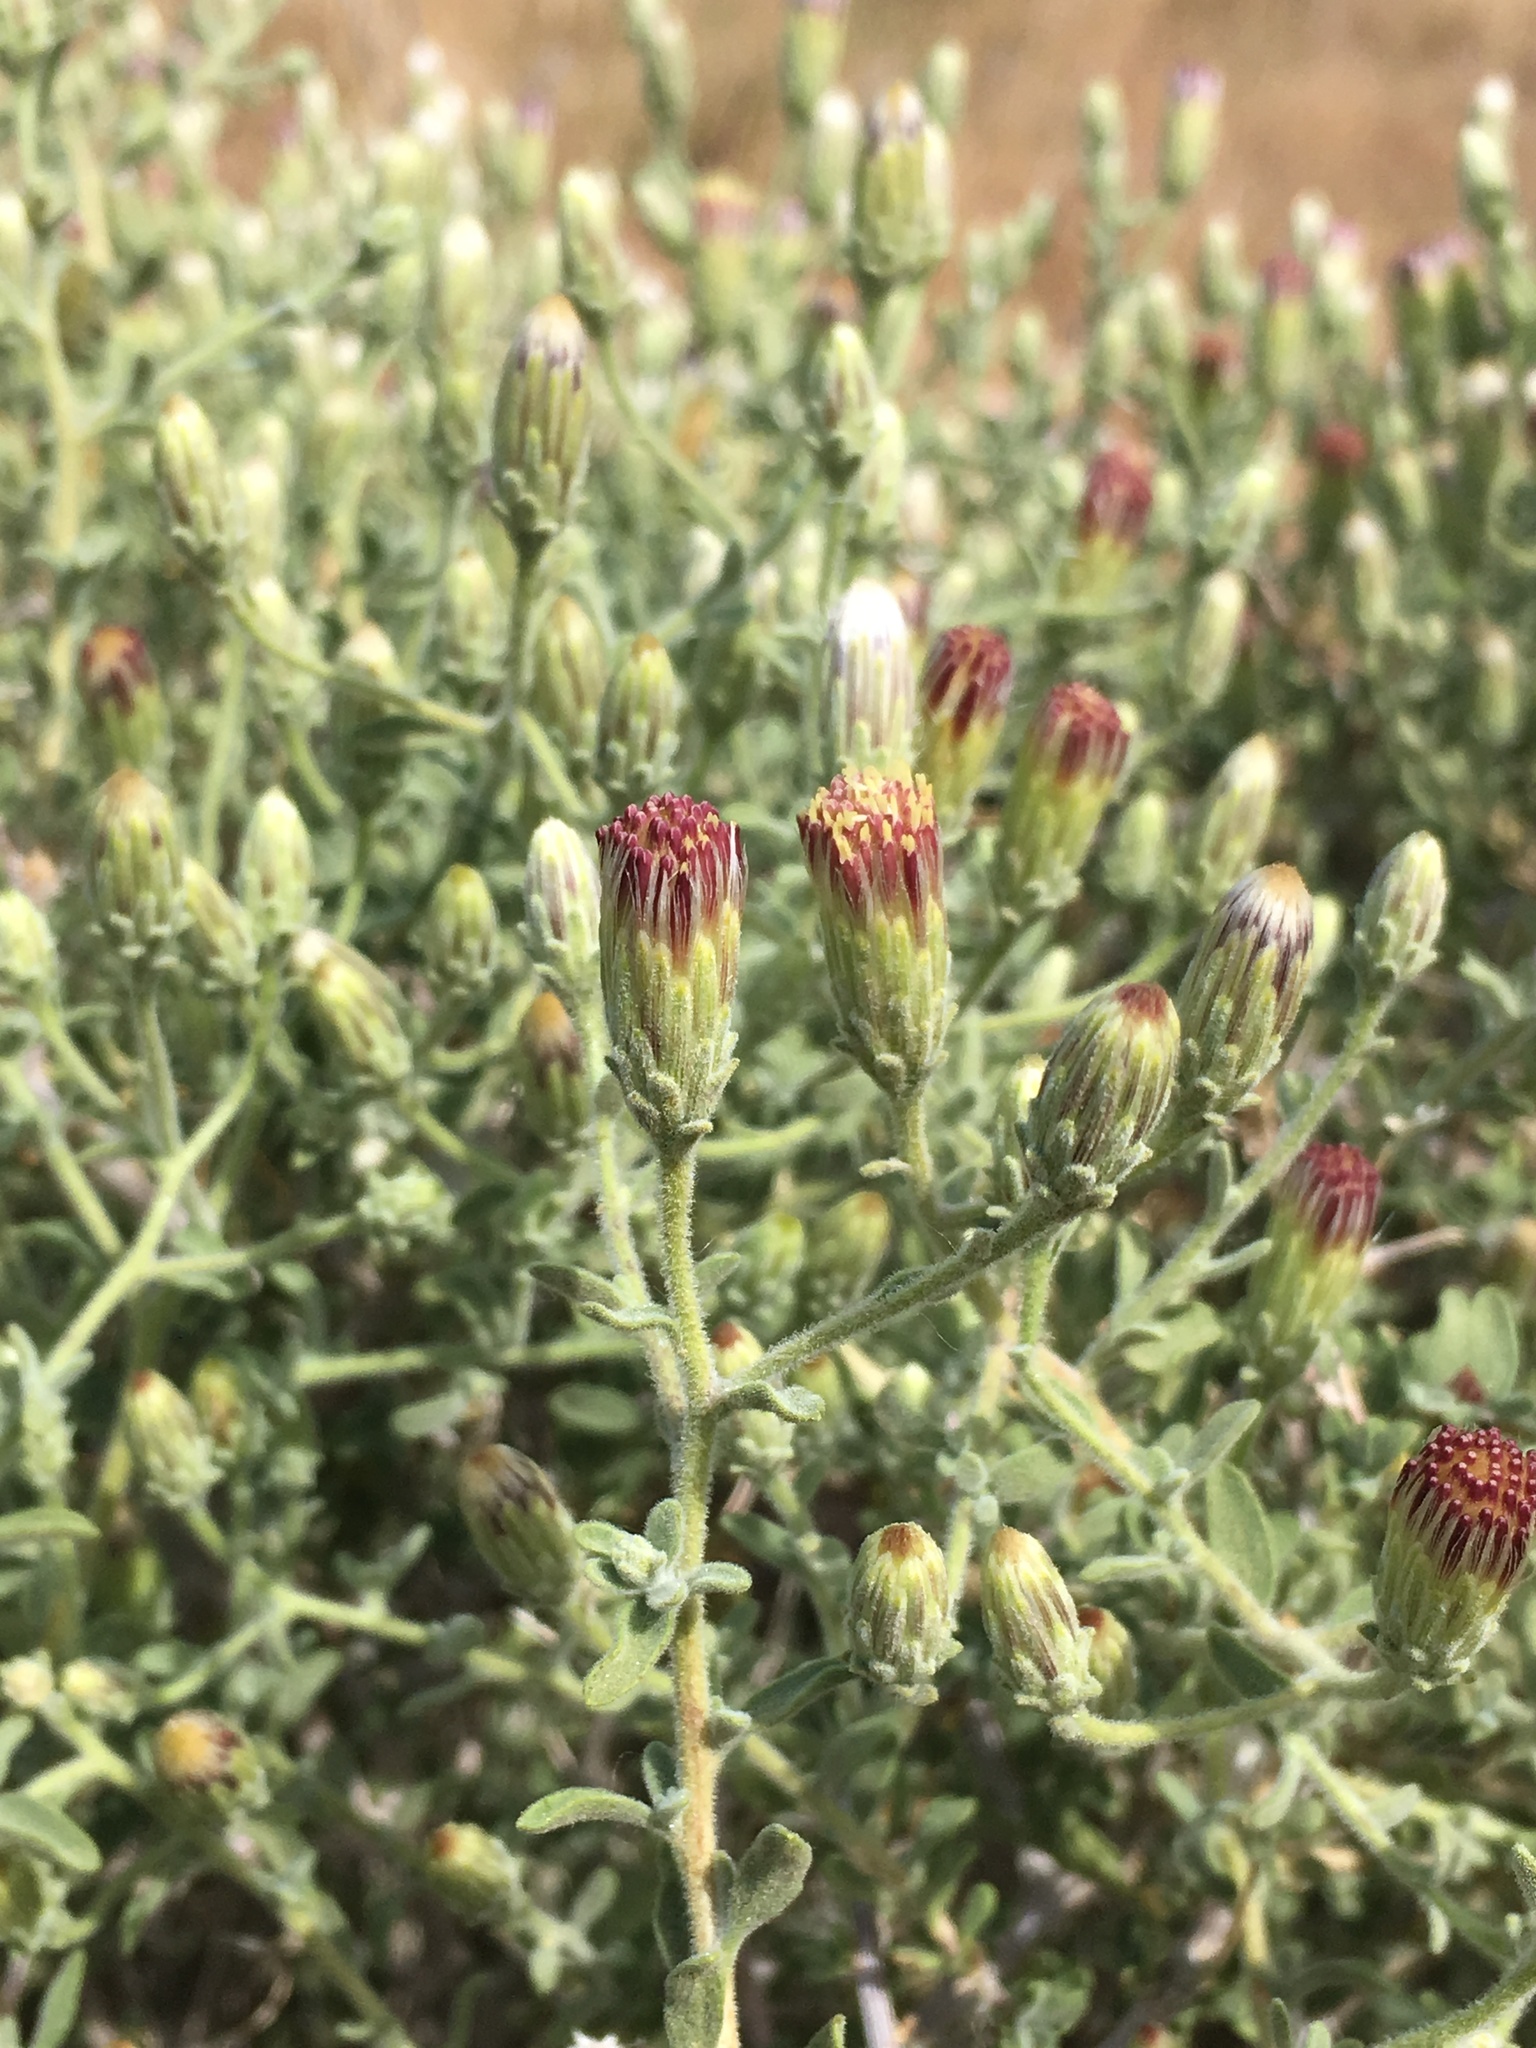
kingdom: Plantae
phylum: Tracheophyta
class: Magnoliopsida
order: Asterales
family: Asteraceae
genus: Brickellia
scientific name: Brickellia frutescens
